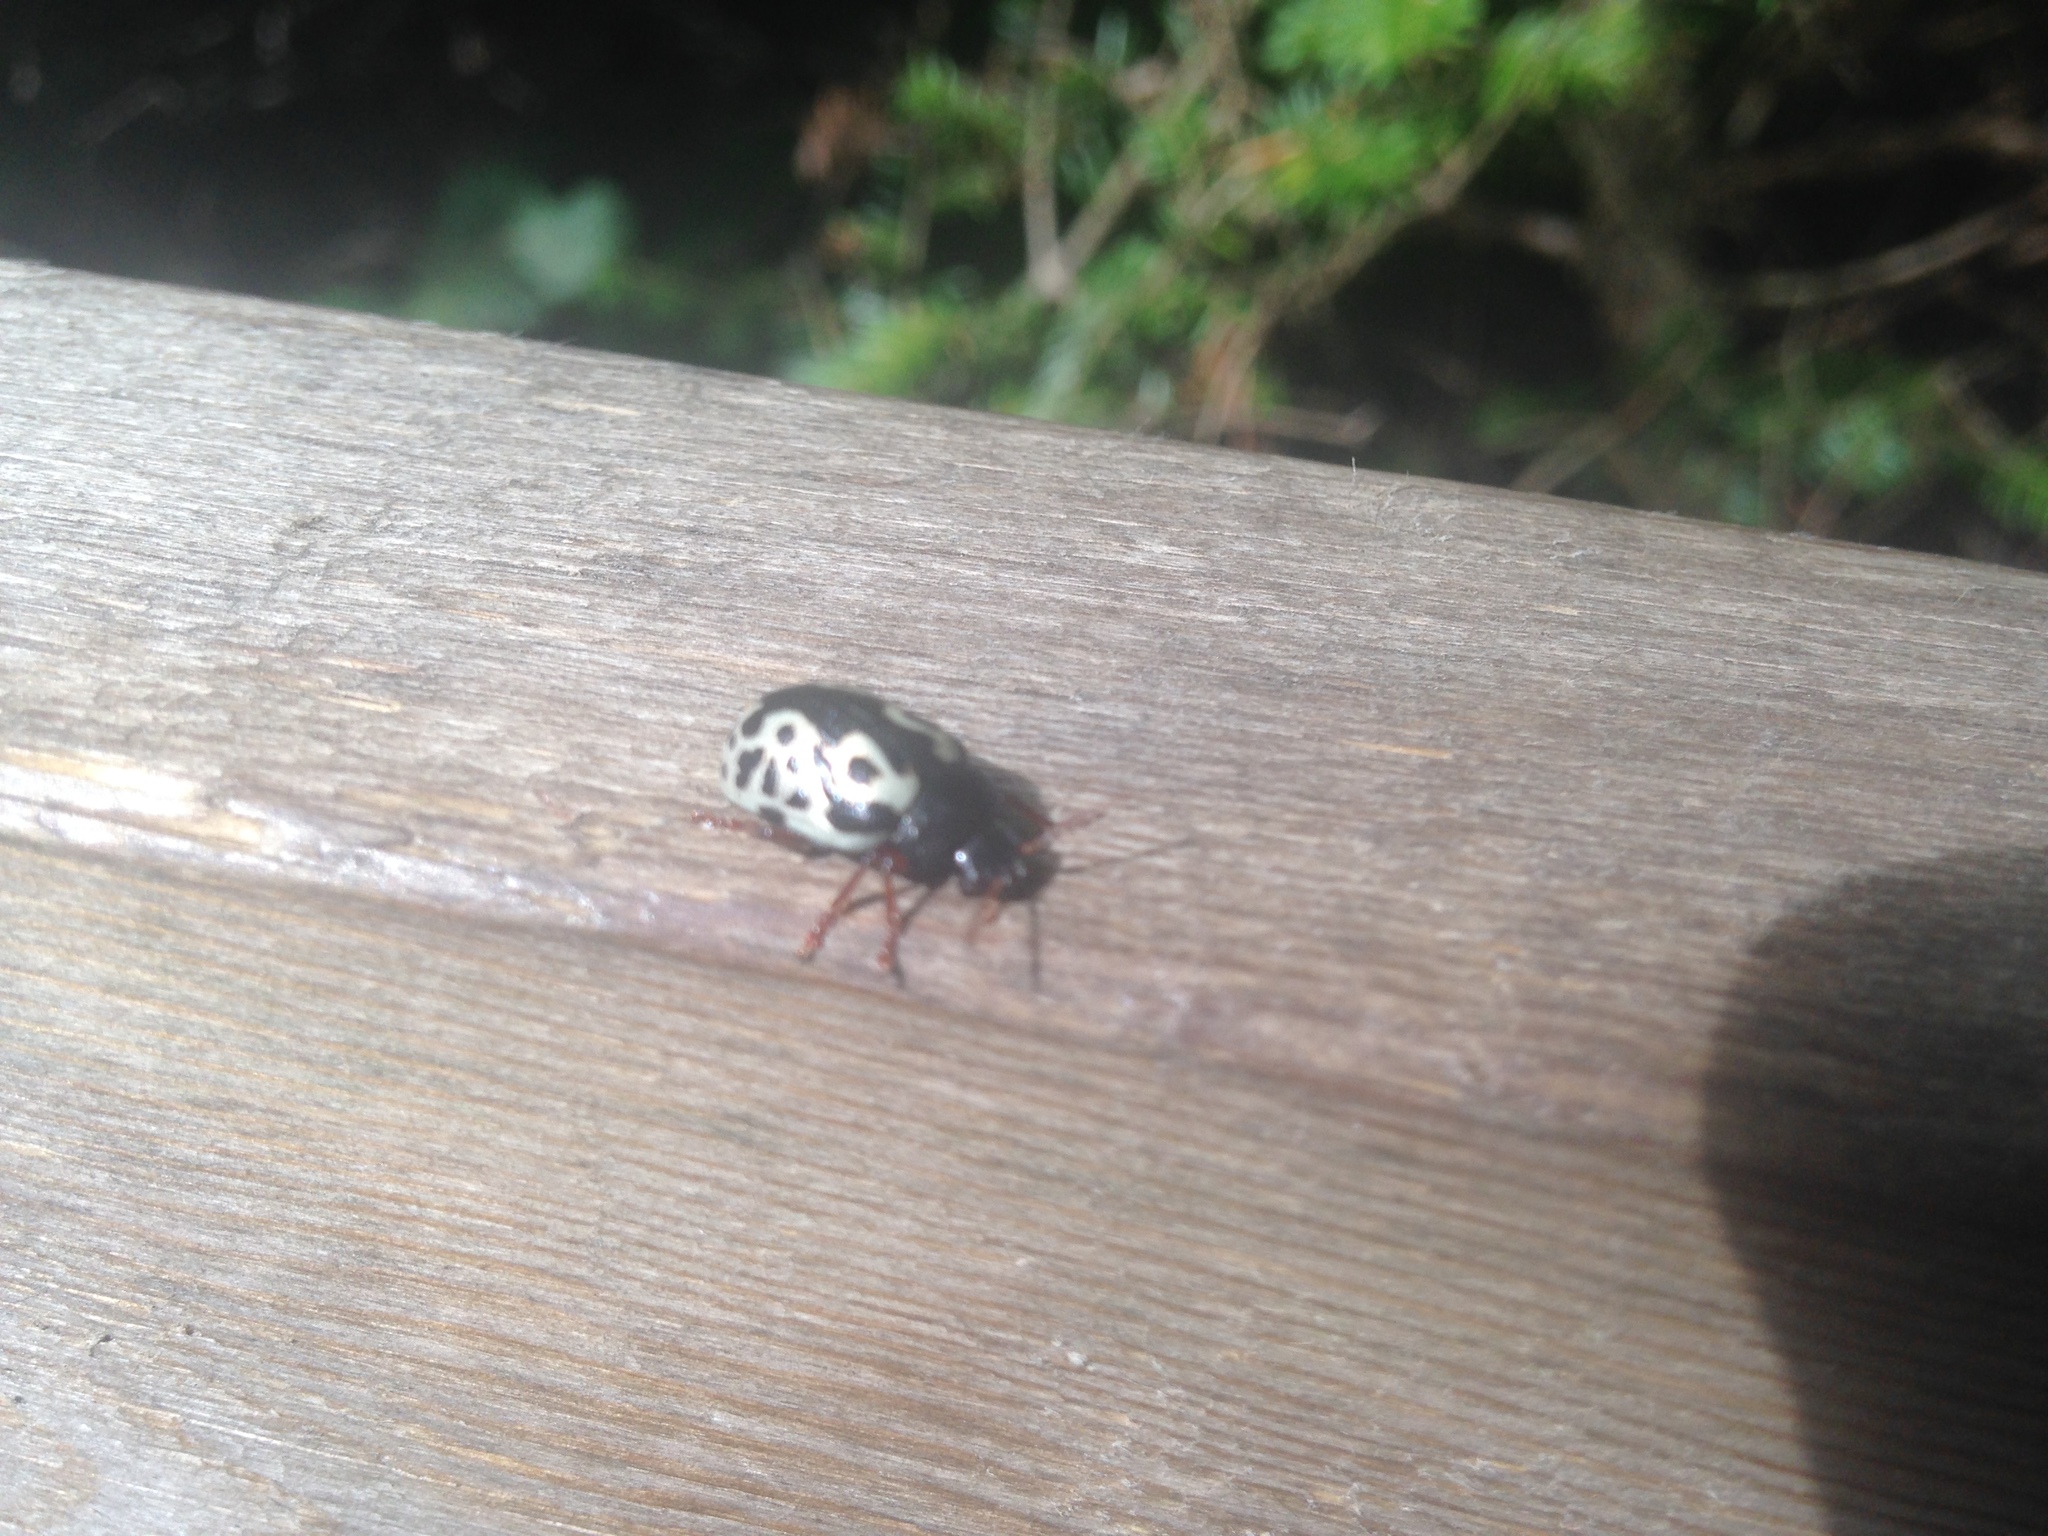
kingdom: Animalia
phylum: Arthropoda
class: Insecta
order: Coleoptera
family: Chrysomelidae
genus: Calligrapha
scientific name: Calligrapha confluens
